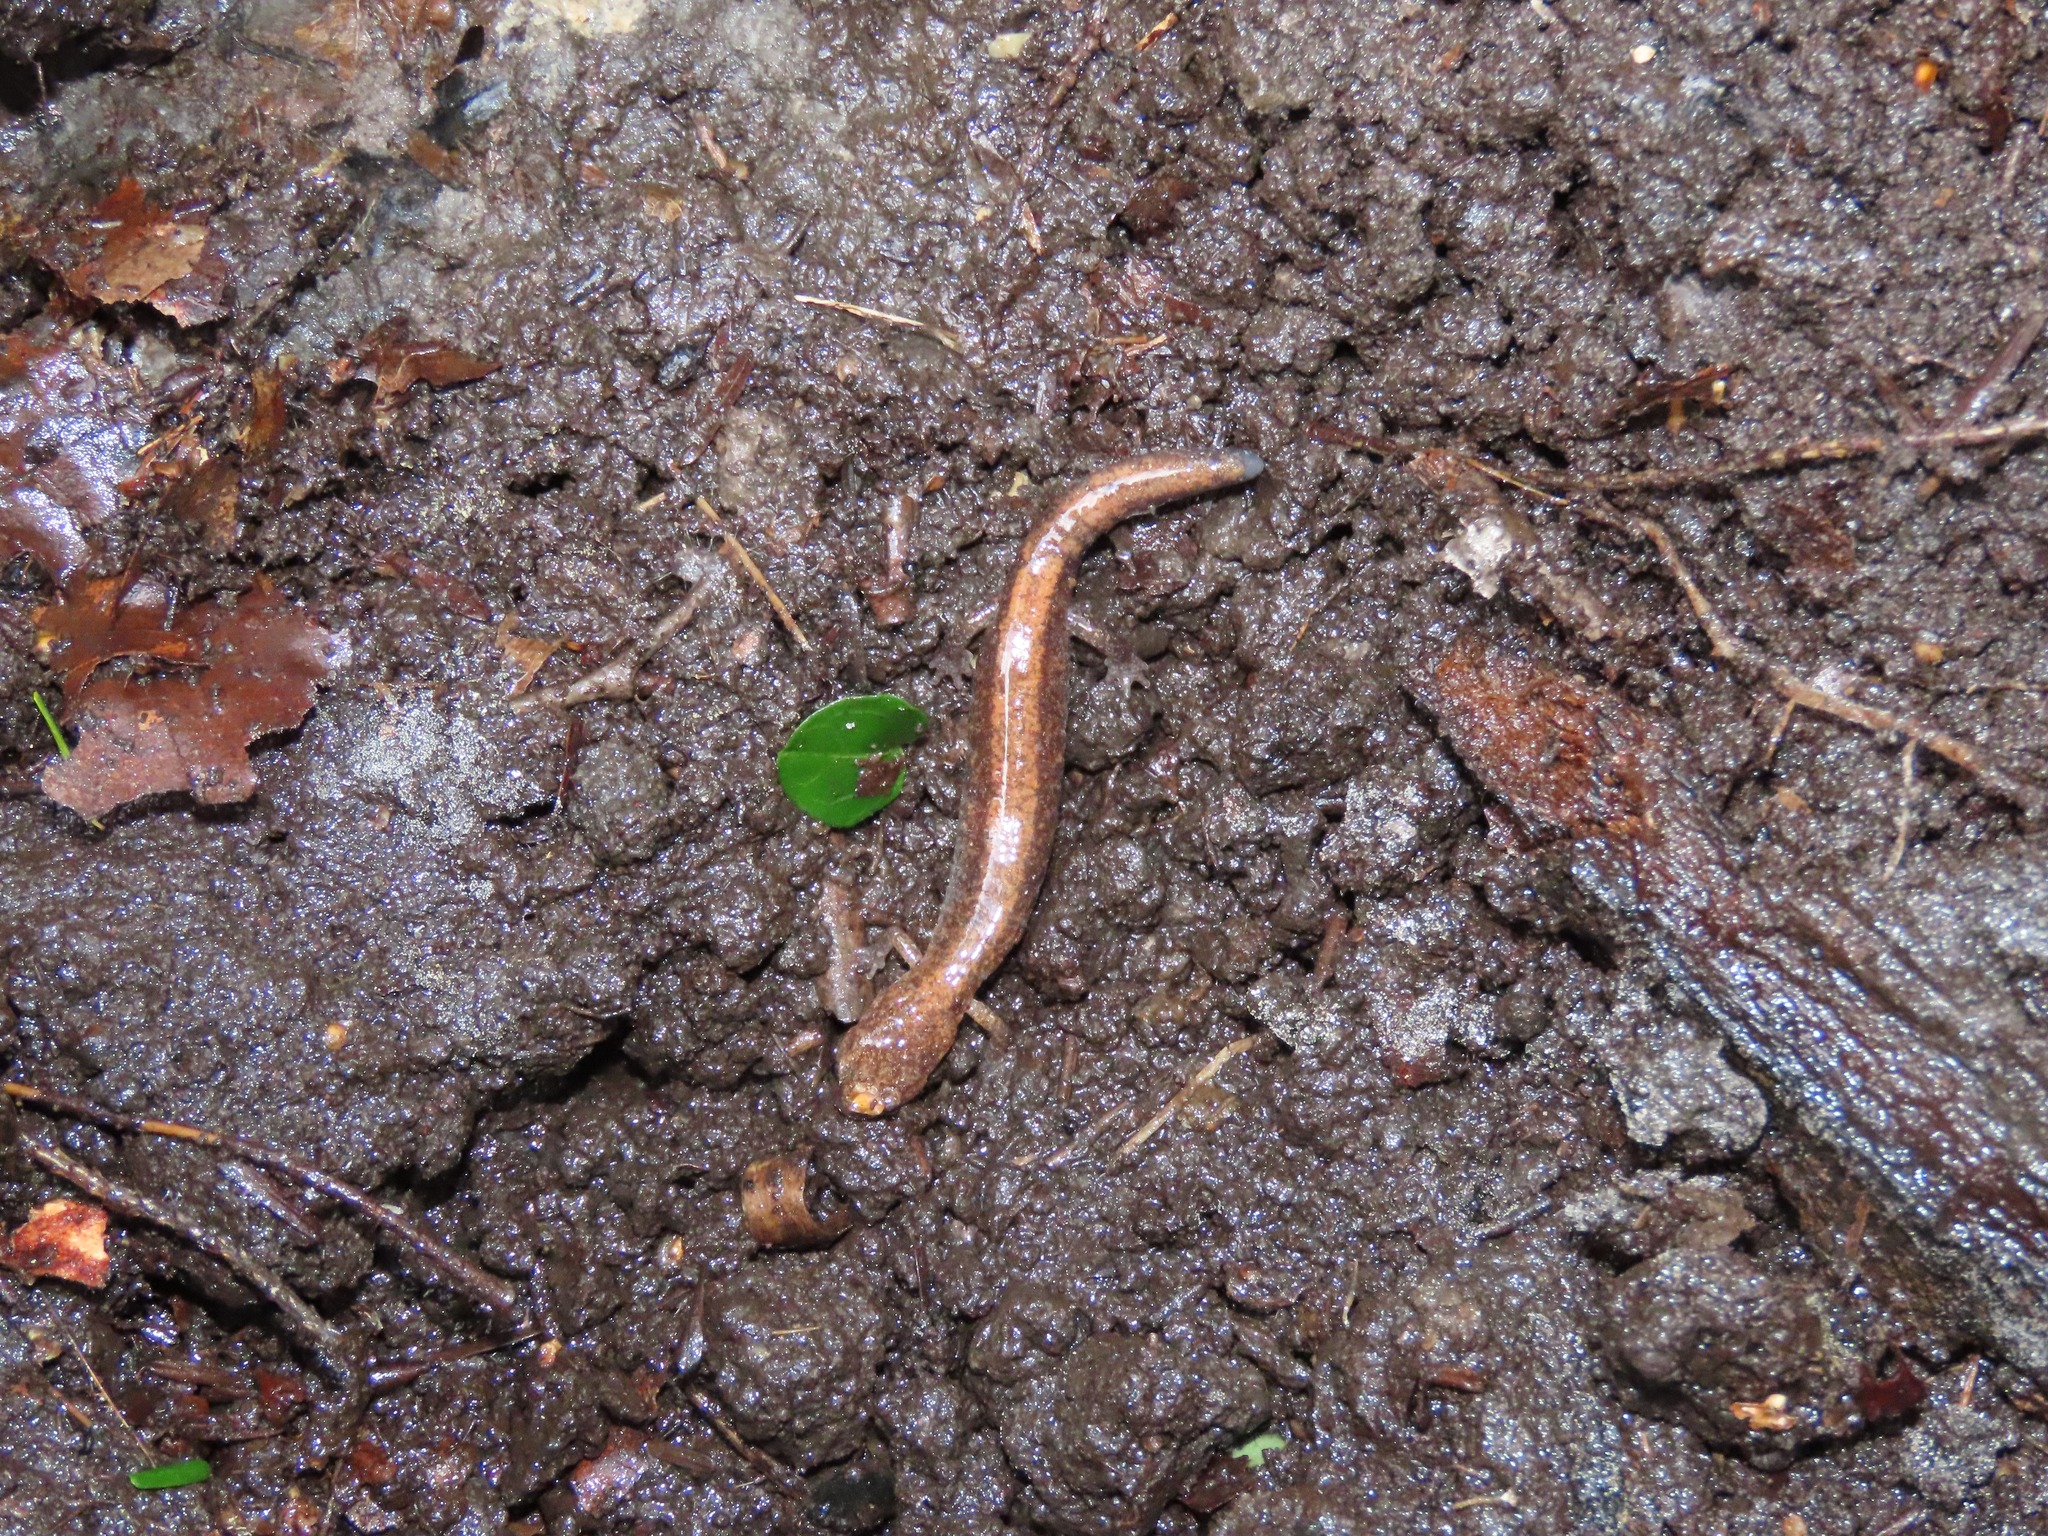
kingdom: Animalia
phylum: Chordata
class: Amphibia
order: Caudata
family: Plethodontidae
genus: Plethodon
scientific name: Plethodon cinereus
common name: Redback salamander
